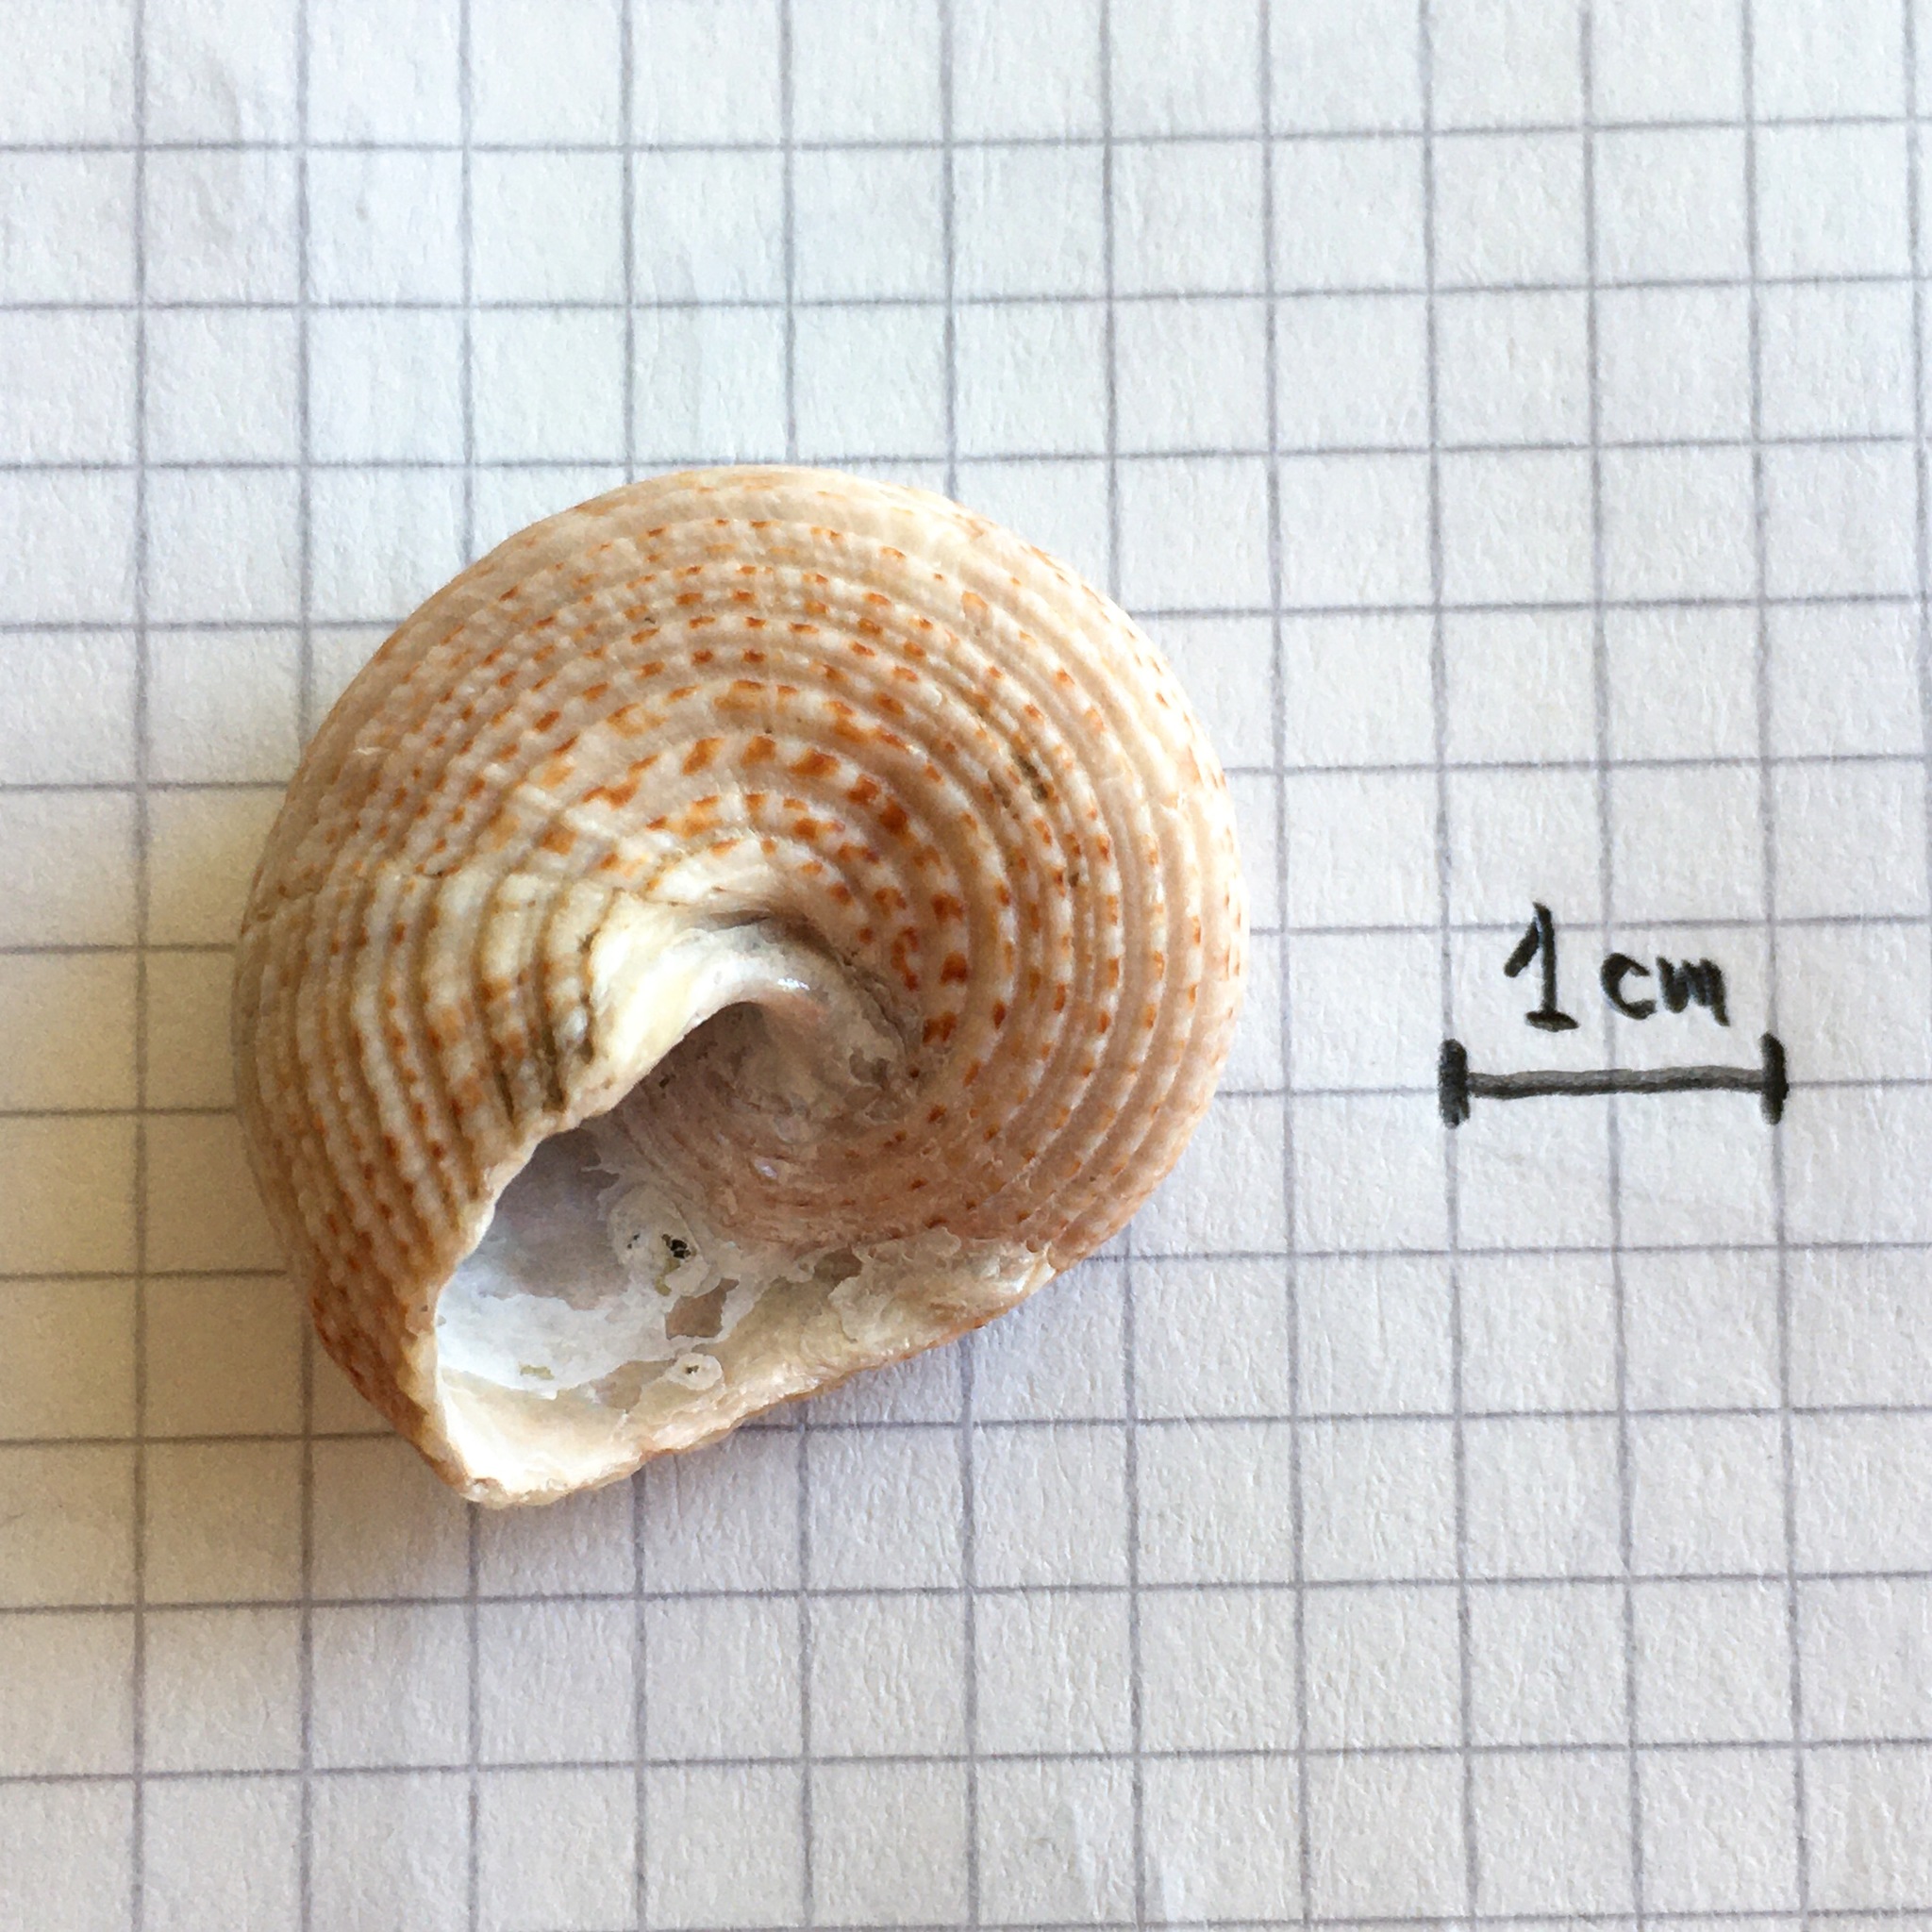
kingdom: Animalia
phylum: Mollusca
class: Gastropoda
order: Trochida
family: Calliostomatidae
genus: Neocalliostoma
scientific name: Neocalliostoma militare
